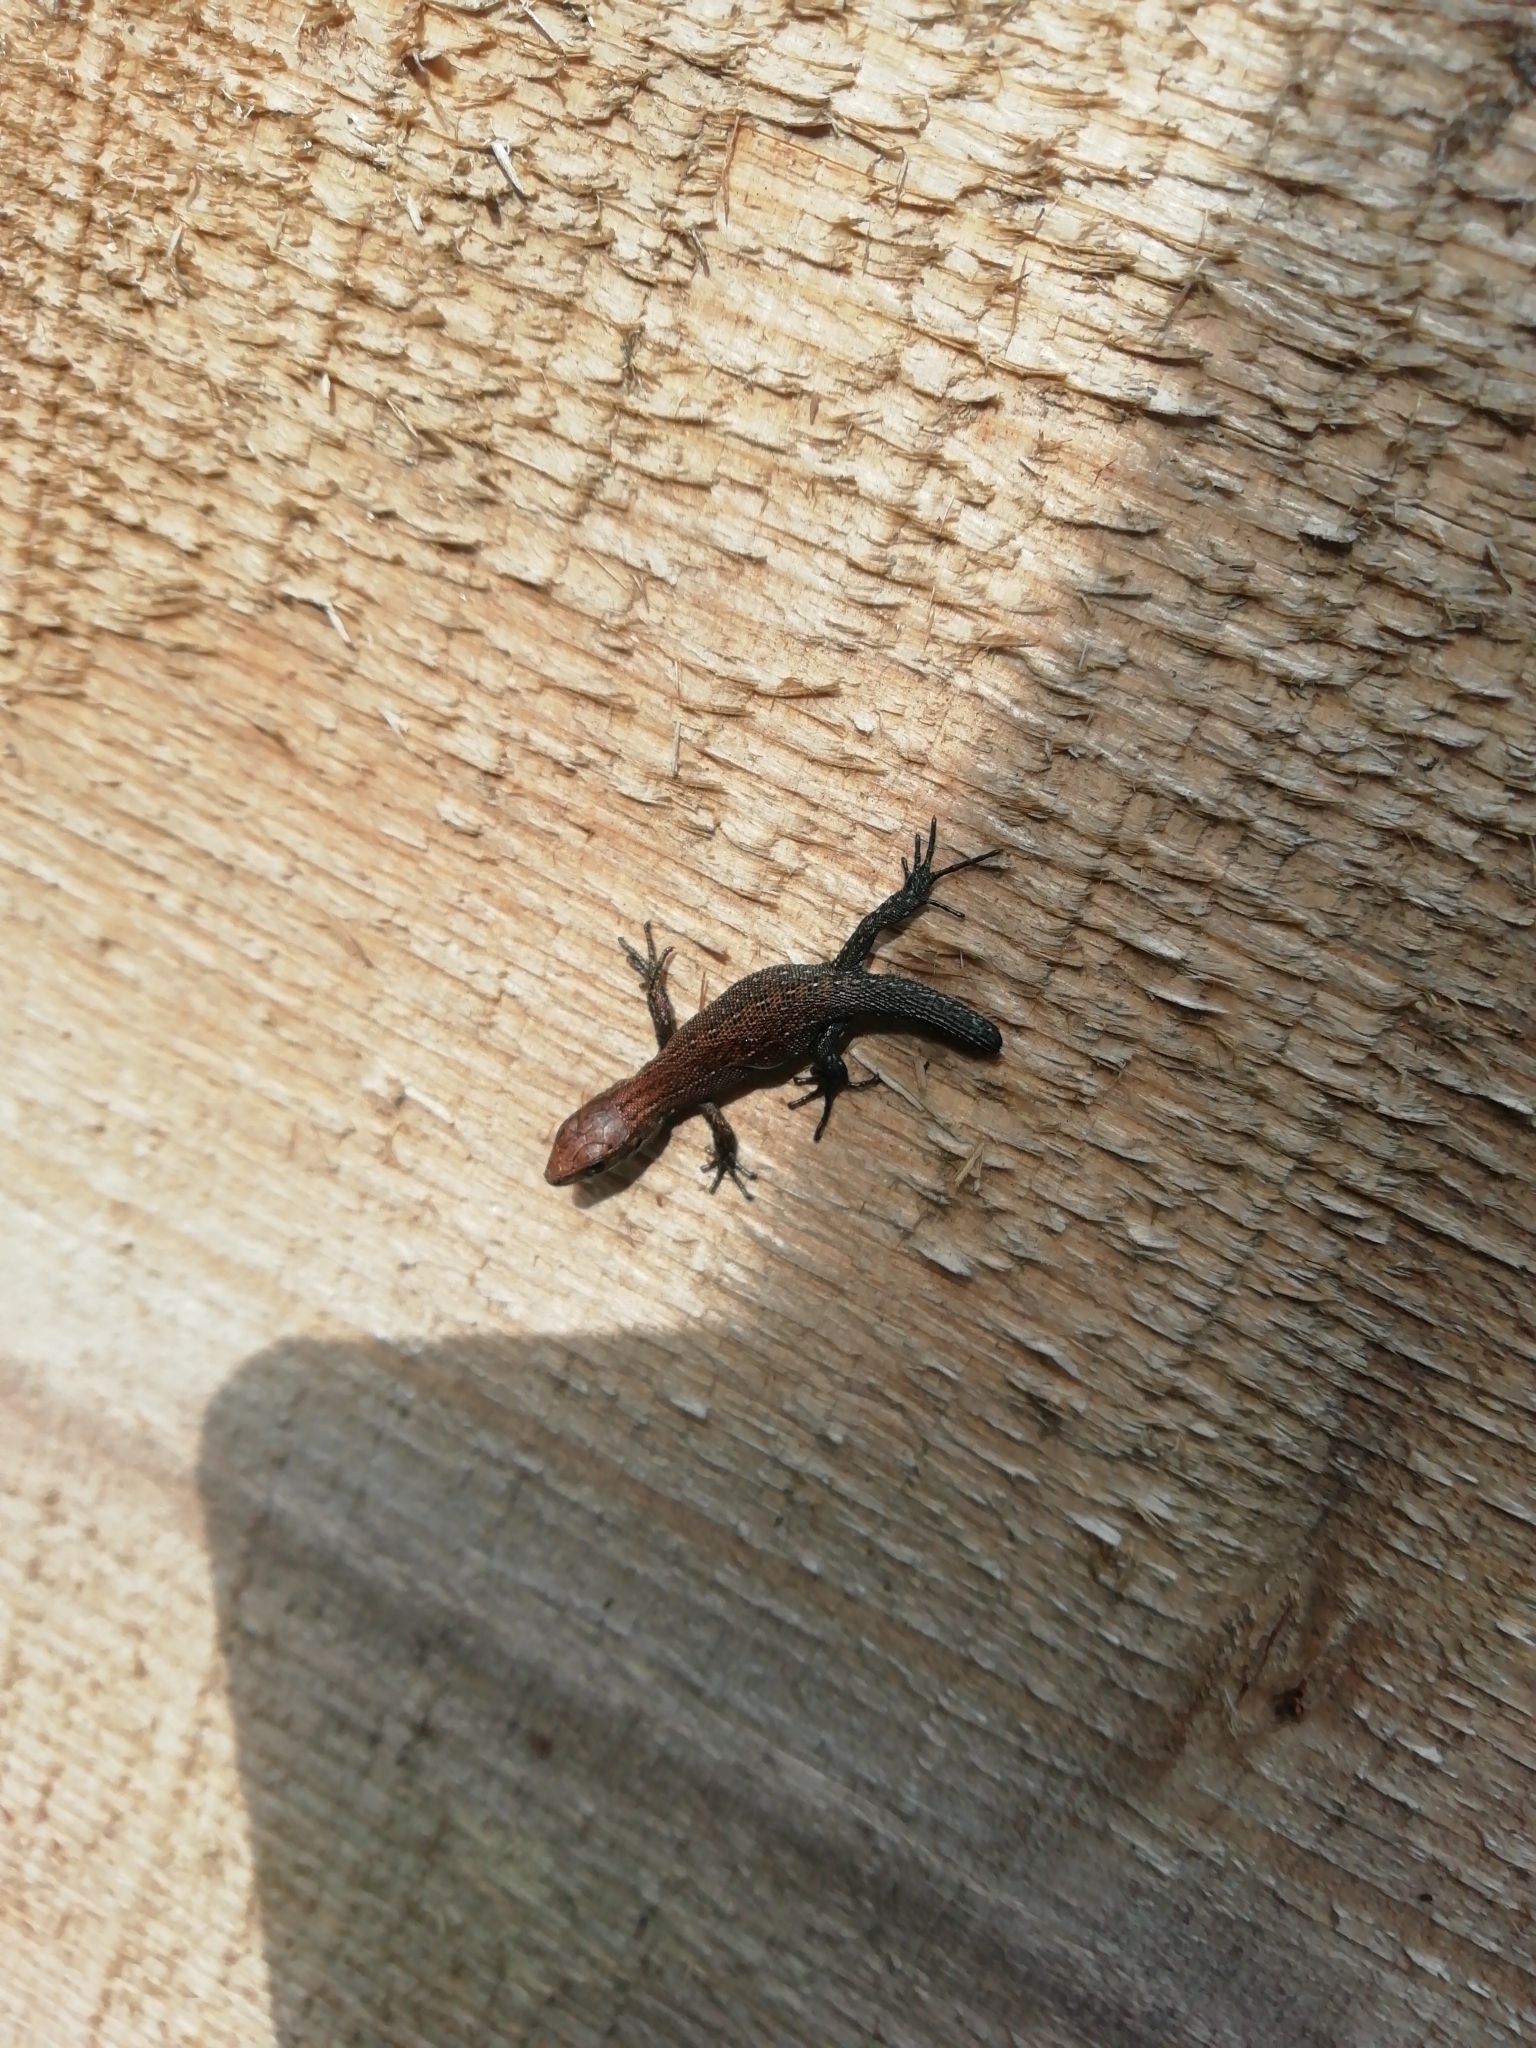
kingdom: Animalia
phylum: Chordata
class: Squamata
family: Lacertidae
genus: Zootoca
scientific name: Zootoca vivipara
